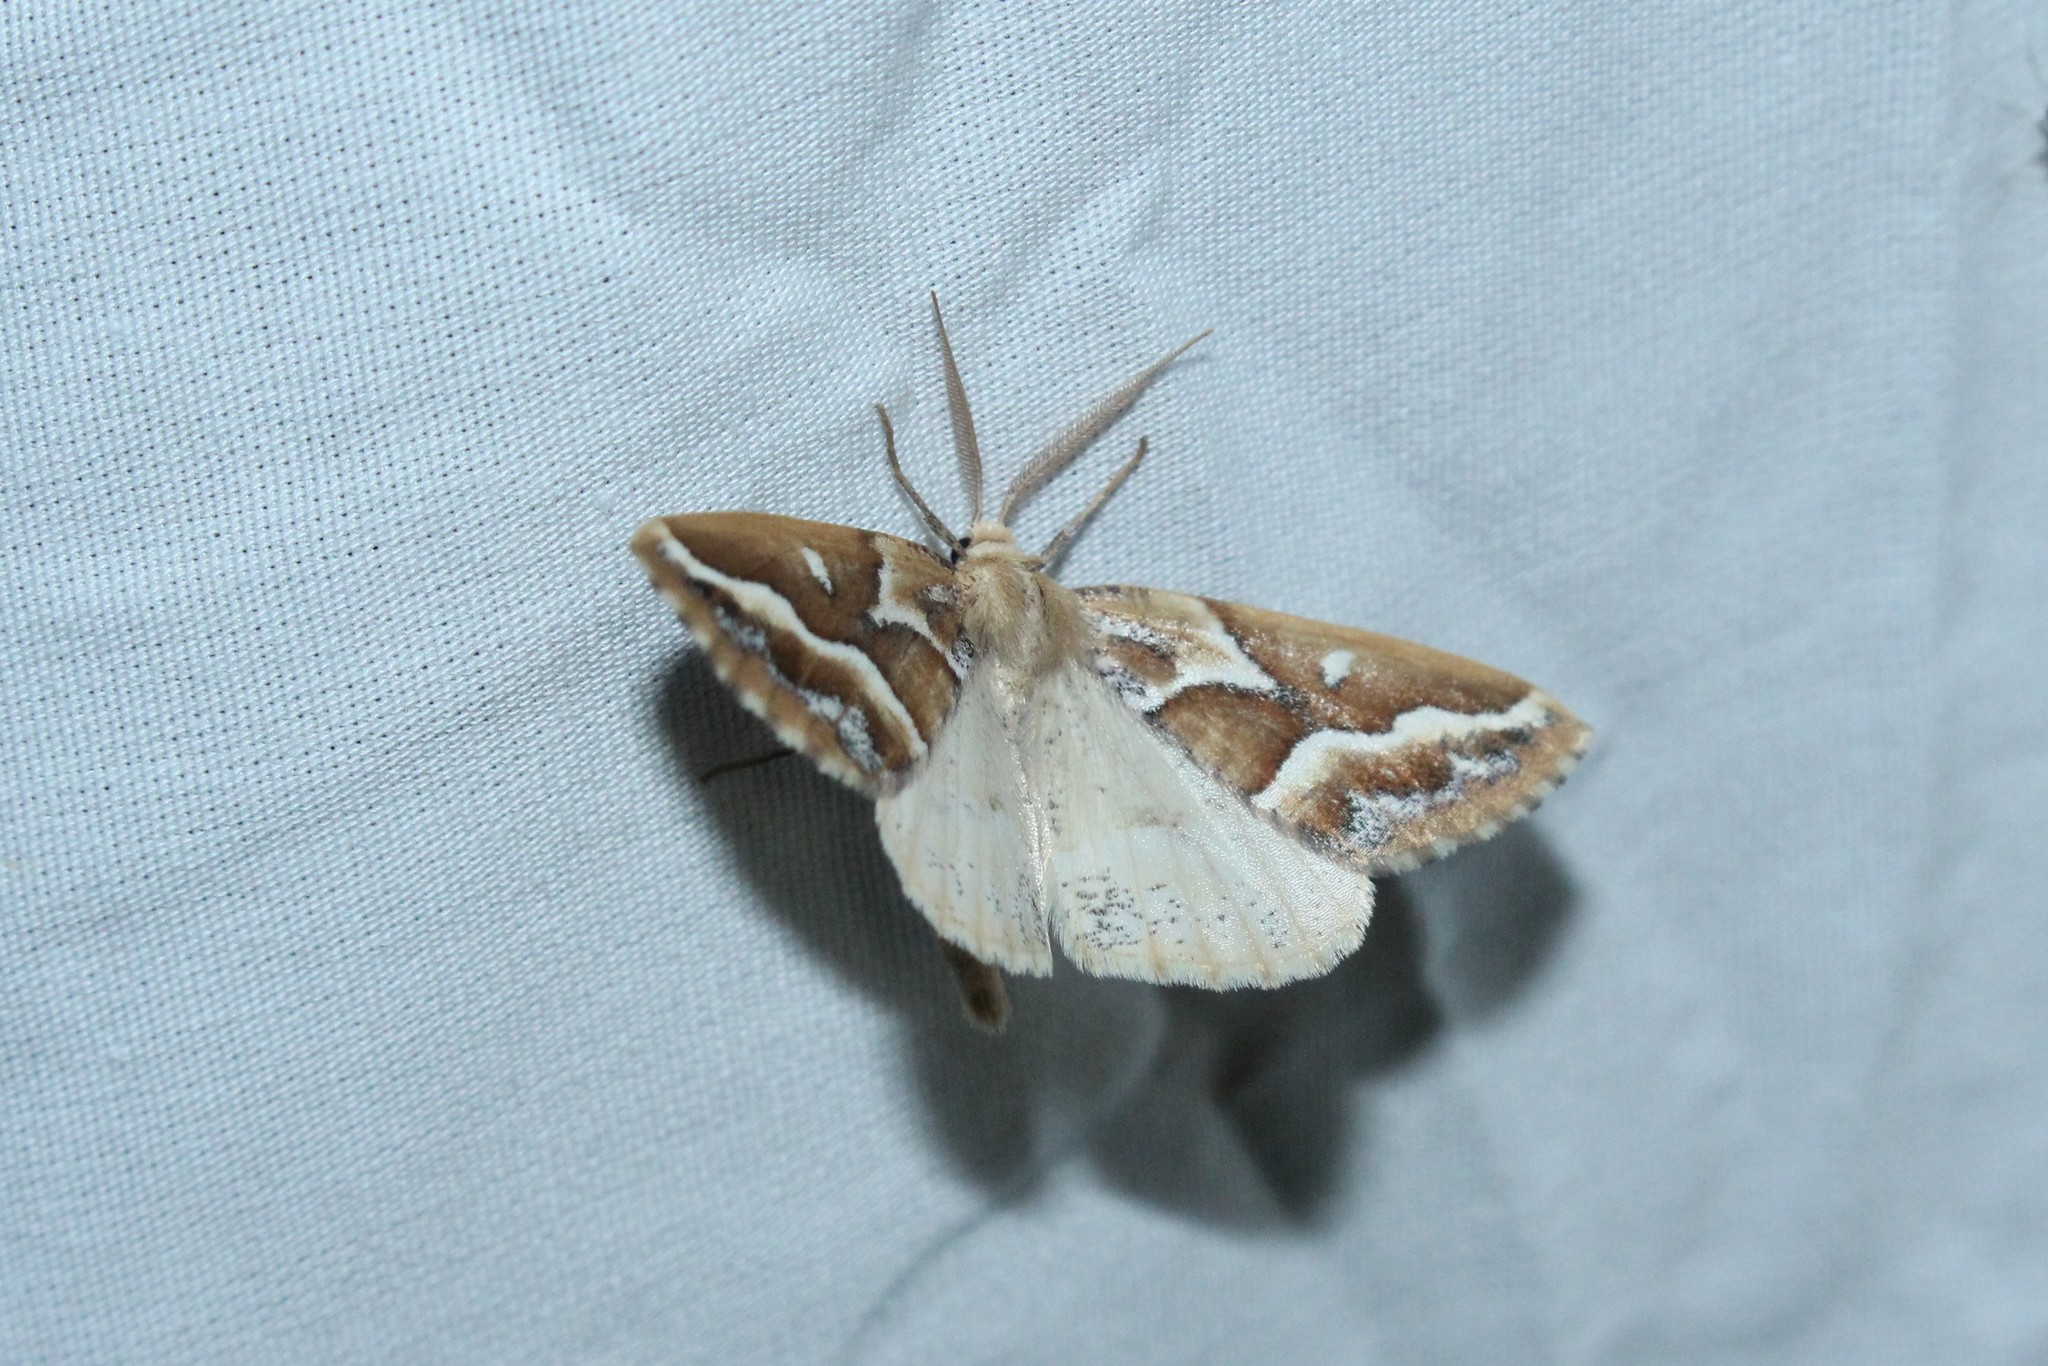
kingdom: Animalia
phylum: Arthropoda
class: Insecta
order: Lepidoptera
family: Geometridae
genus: Caripeta
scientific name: Caripeta angustiorata
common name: Brown pine looper
